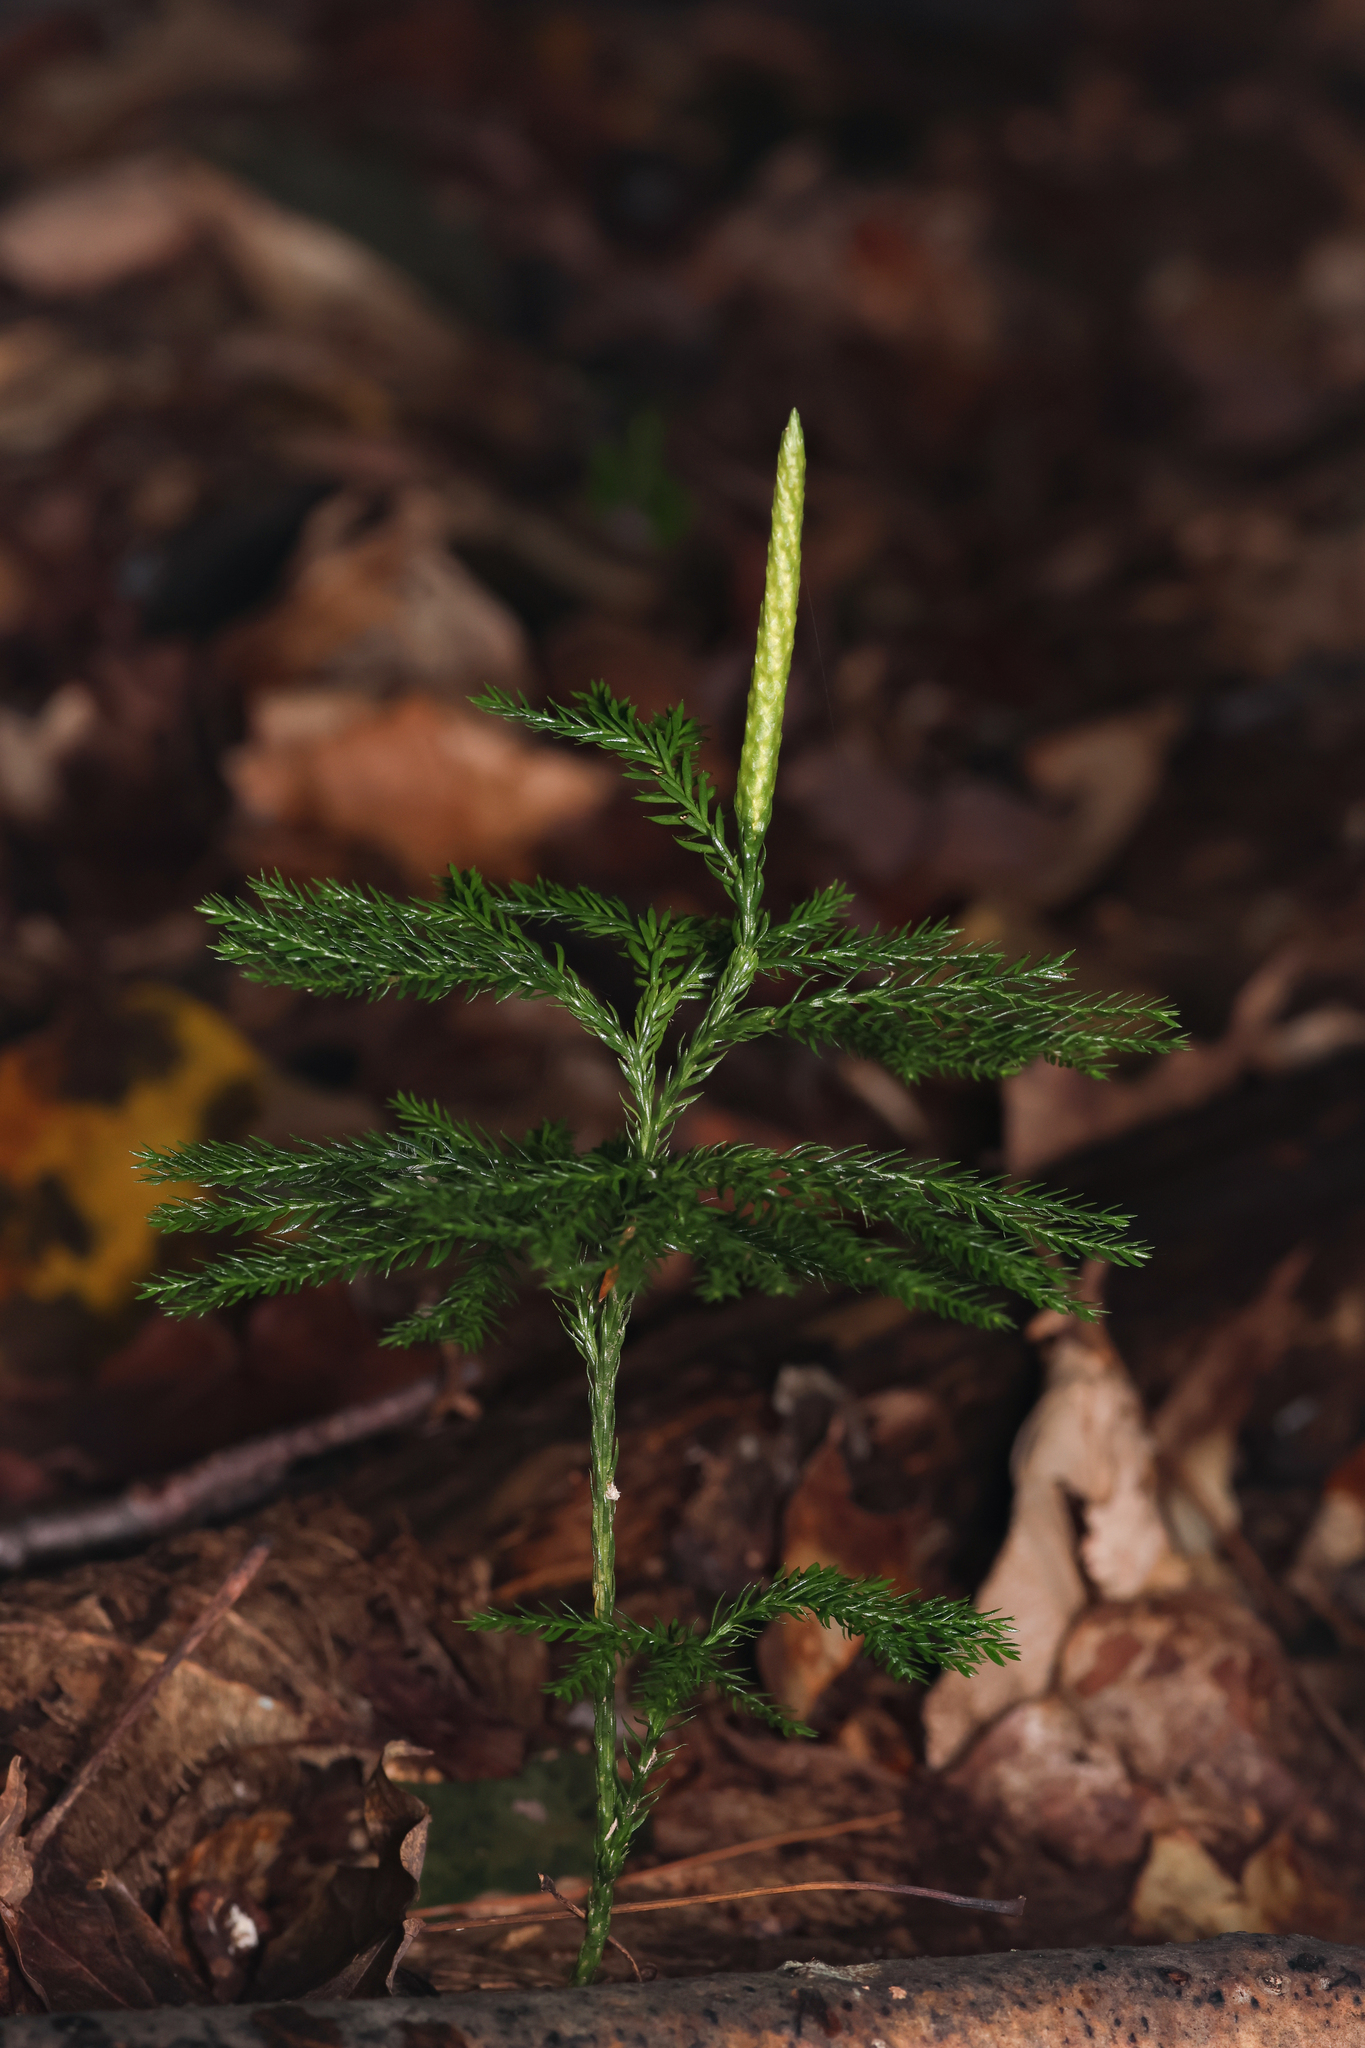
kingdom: Plantae
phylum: Tracheophyta
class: Lycopodiopsida
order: Lycopodiales
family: Lycopodiaceae
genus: Dendrolycopodium
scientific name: Dendrolycopodium obscurum
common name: Common ground-pine
